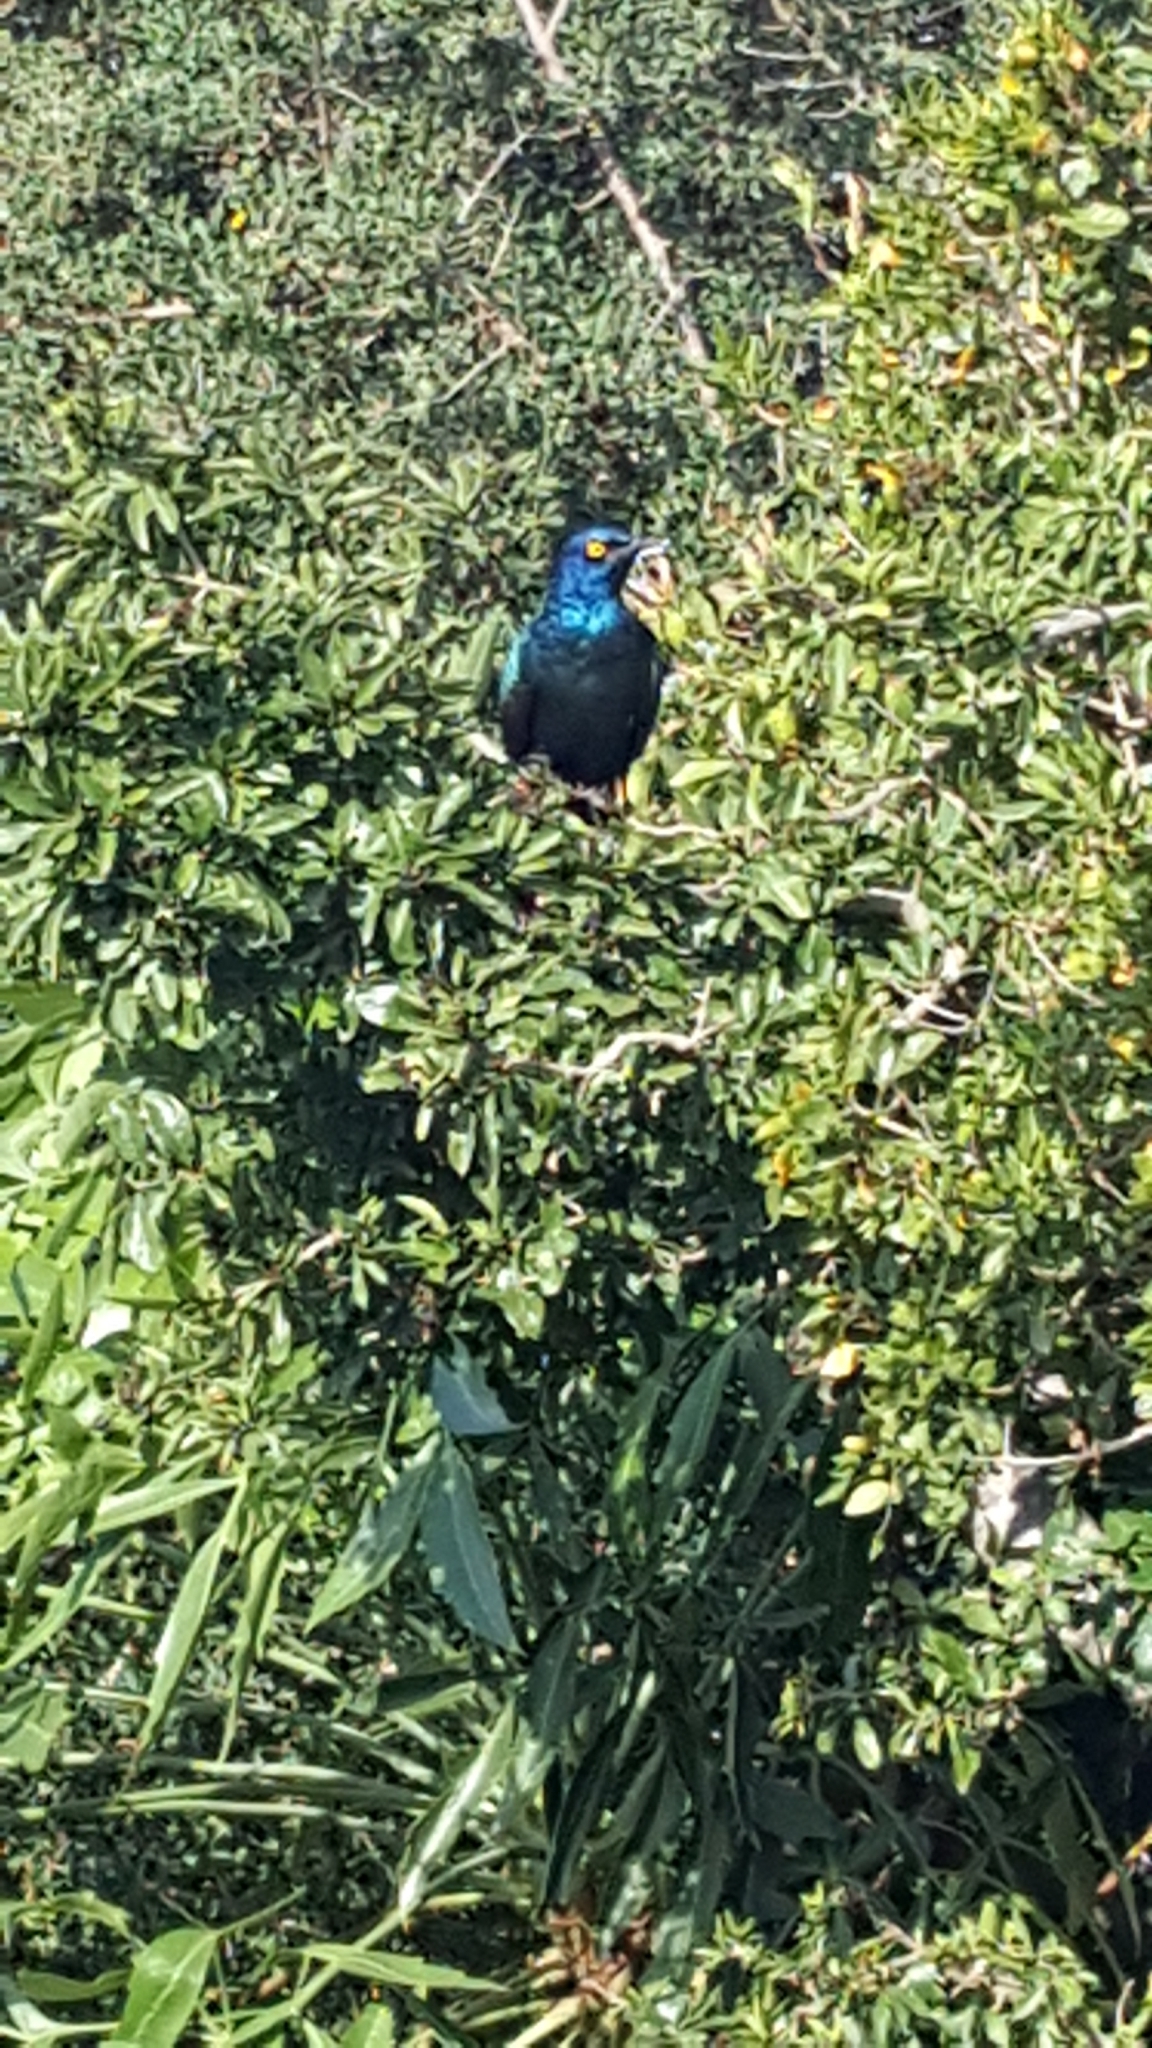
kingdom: Animalia
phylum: Chordata
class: Aves
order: Passeriformes
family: Sturnidae
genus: Lamprotornis
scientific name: Lamprotornis nitens
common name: Cape starling
